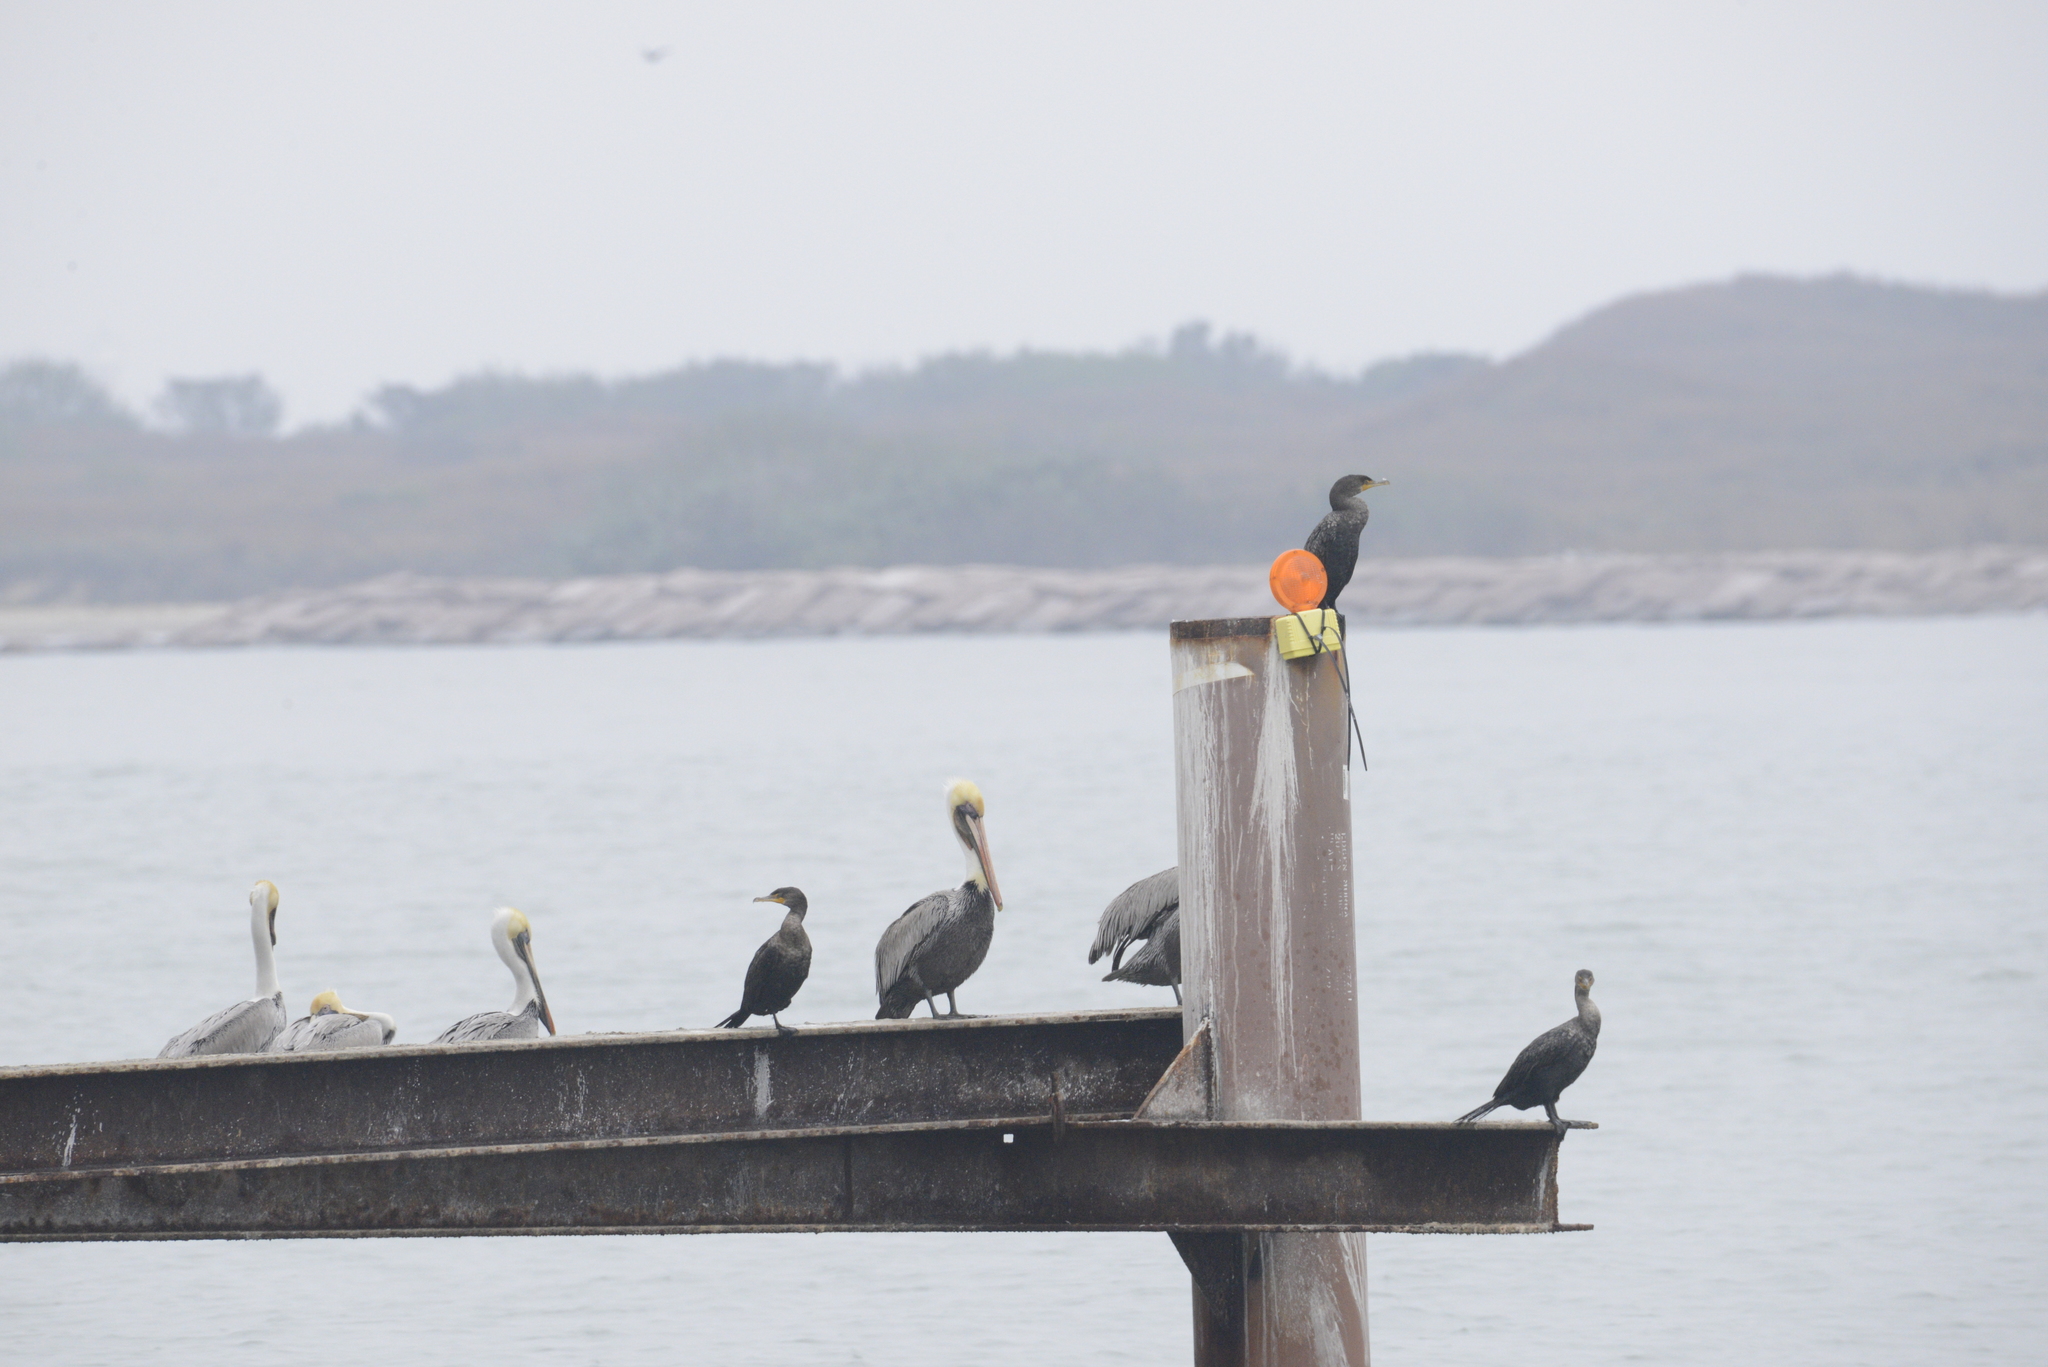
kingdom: Animalia
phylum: Chordata
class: Aves
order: Pelecaniformes
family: Pelecanidae
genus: Pelecanus
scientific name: Pelecanus occidentalis
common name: Brown pelican
